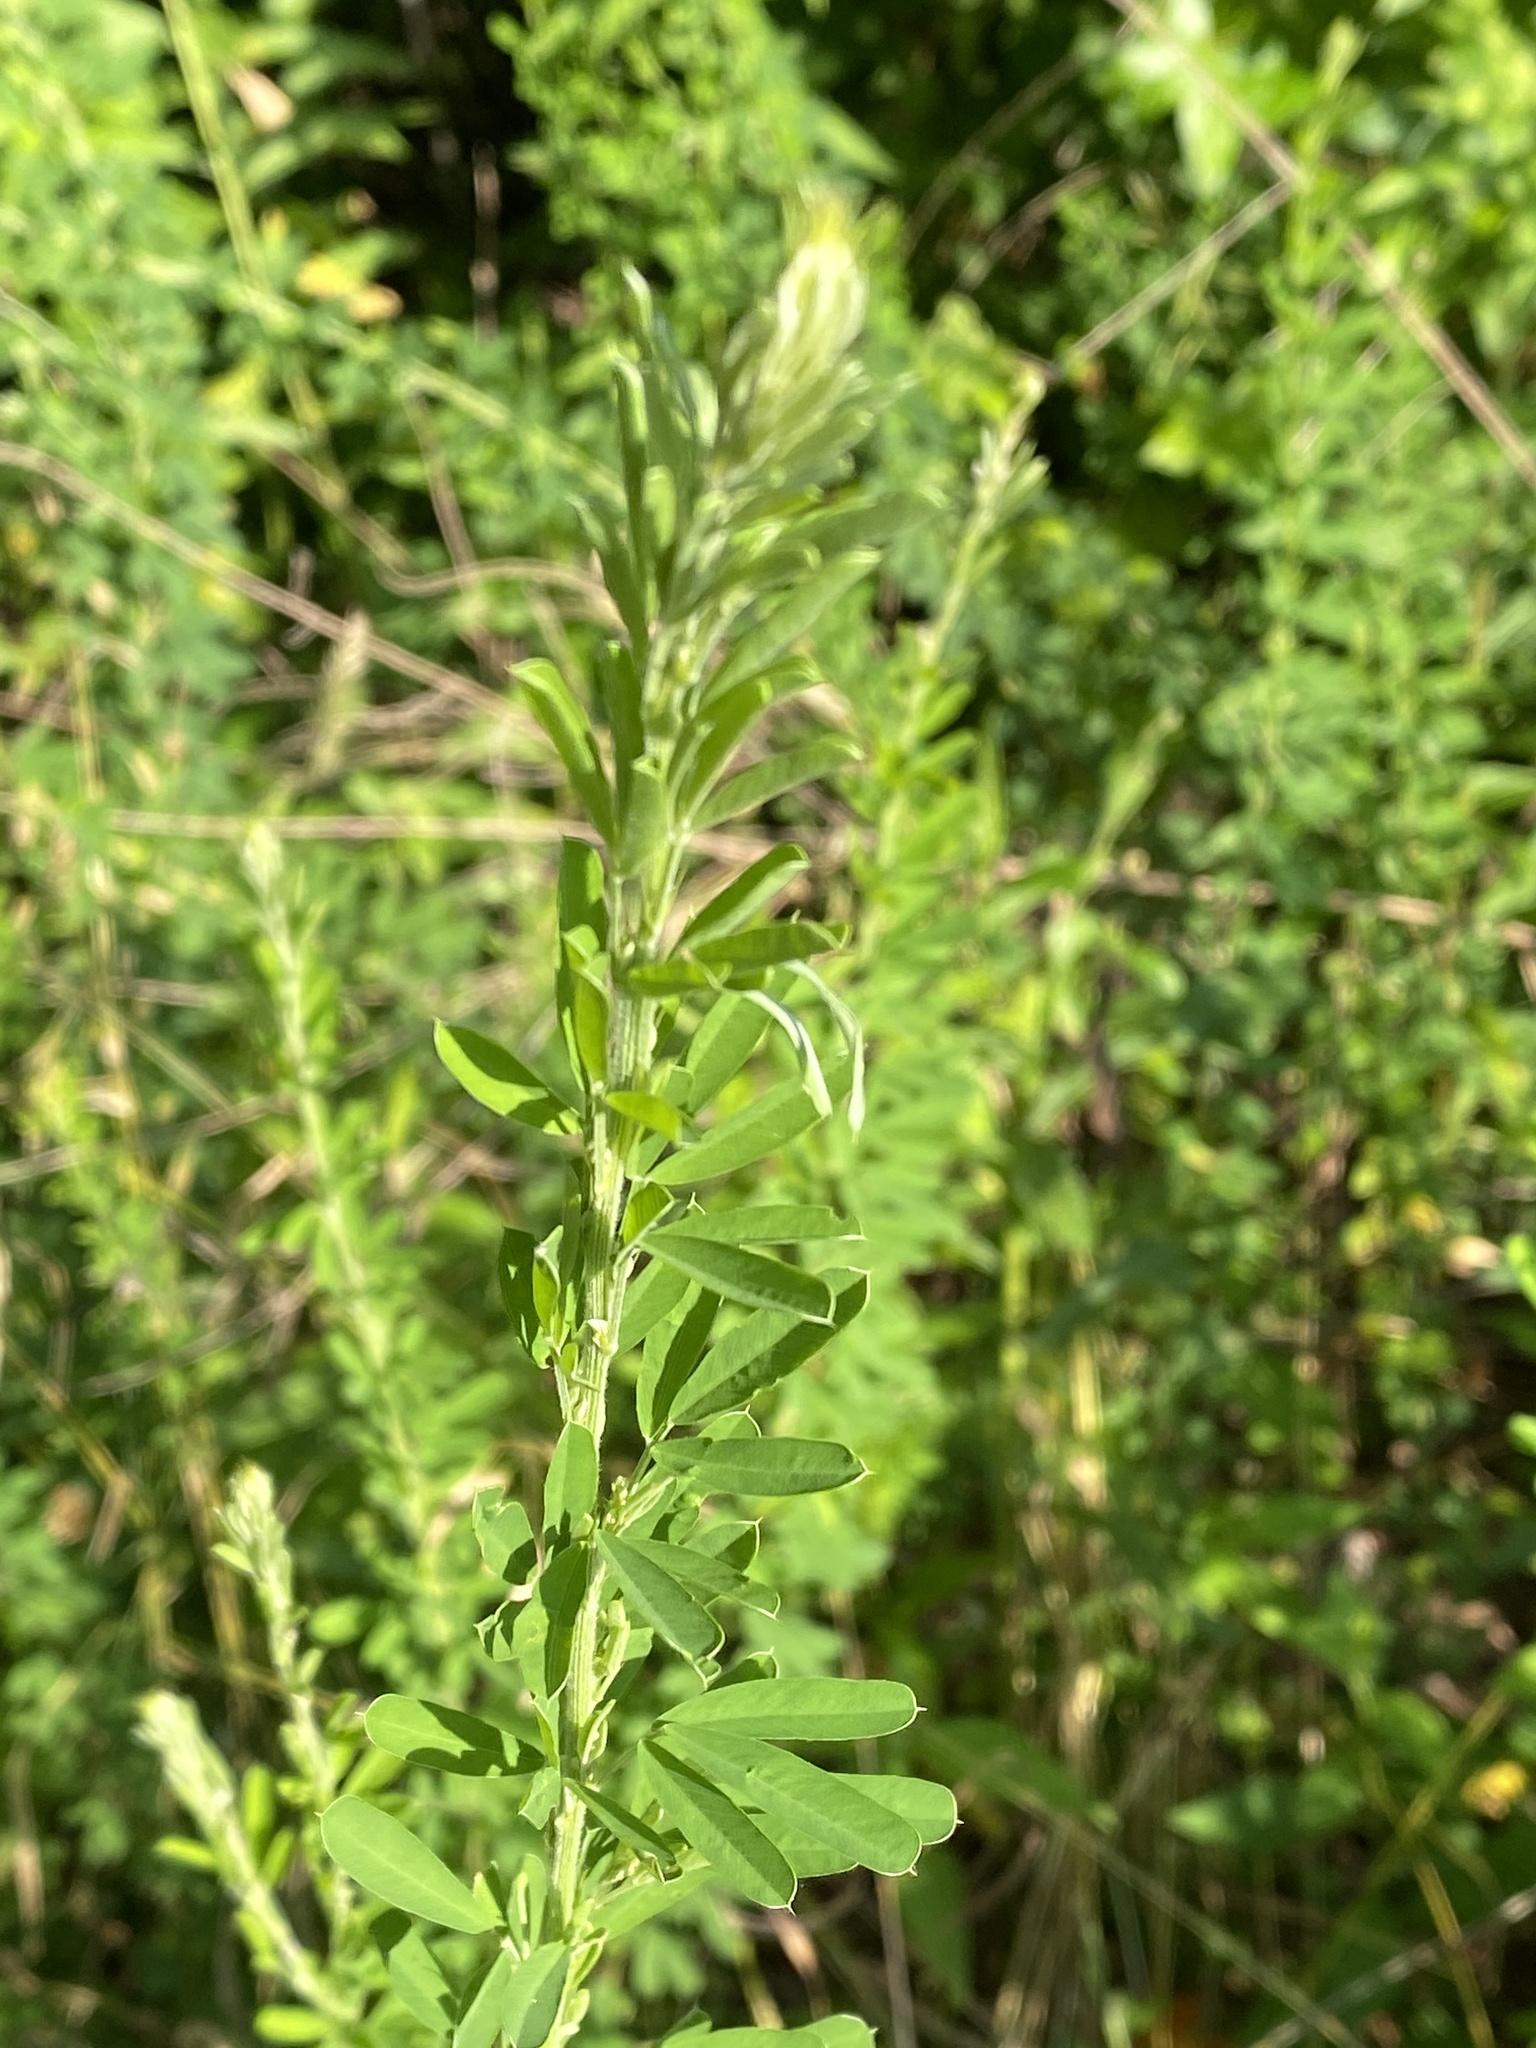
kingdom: Plantae
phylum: Tracheophyta
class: Magnoliopsida
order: Fabales
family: Fabaceae
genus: Lespedeza
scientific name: Lespedeza cuneata
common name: Chinese bush-clover
